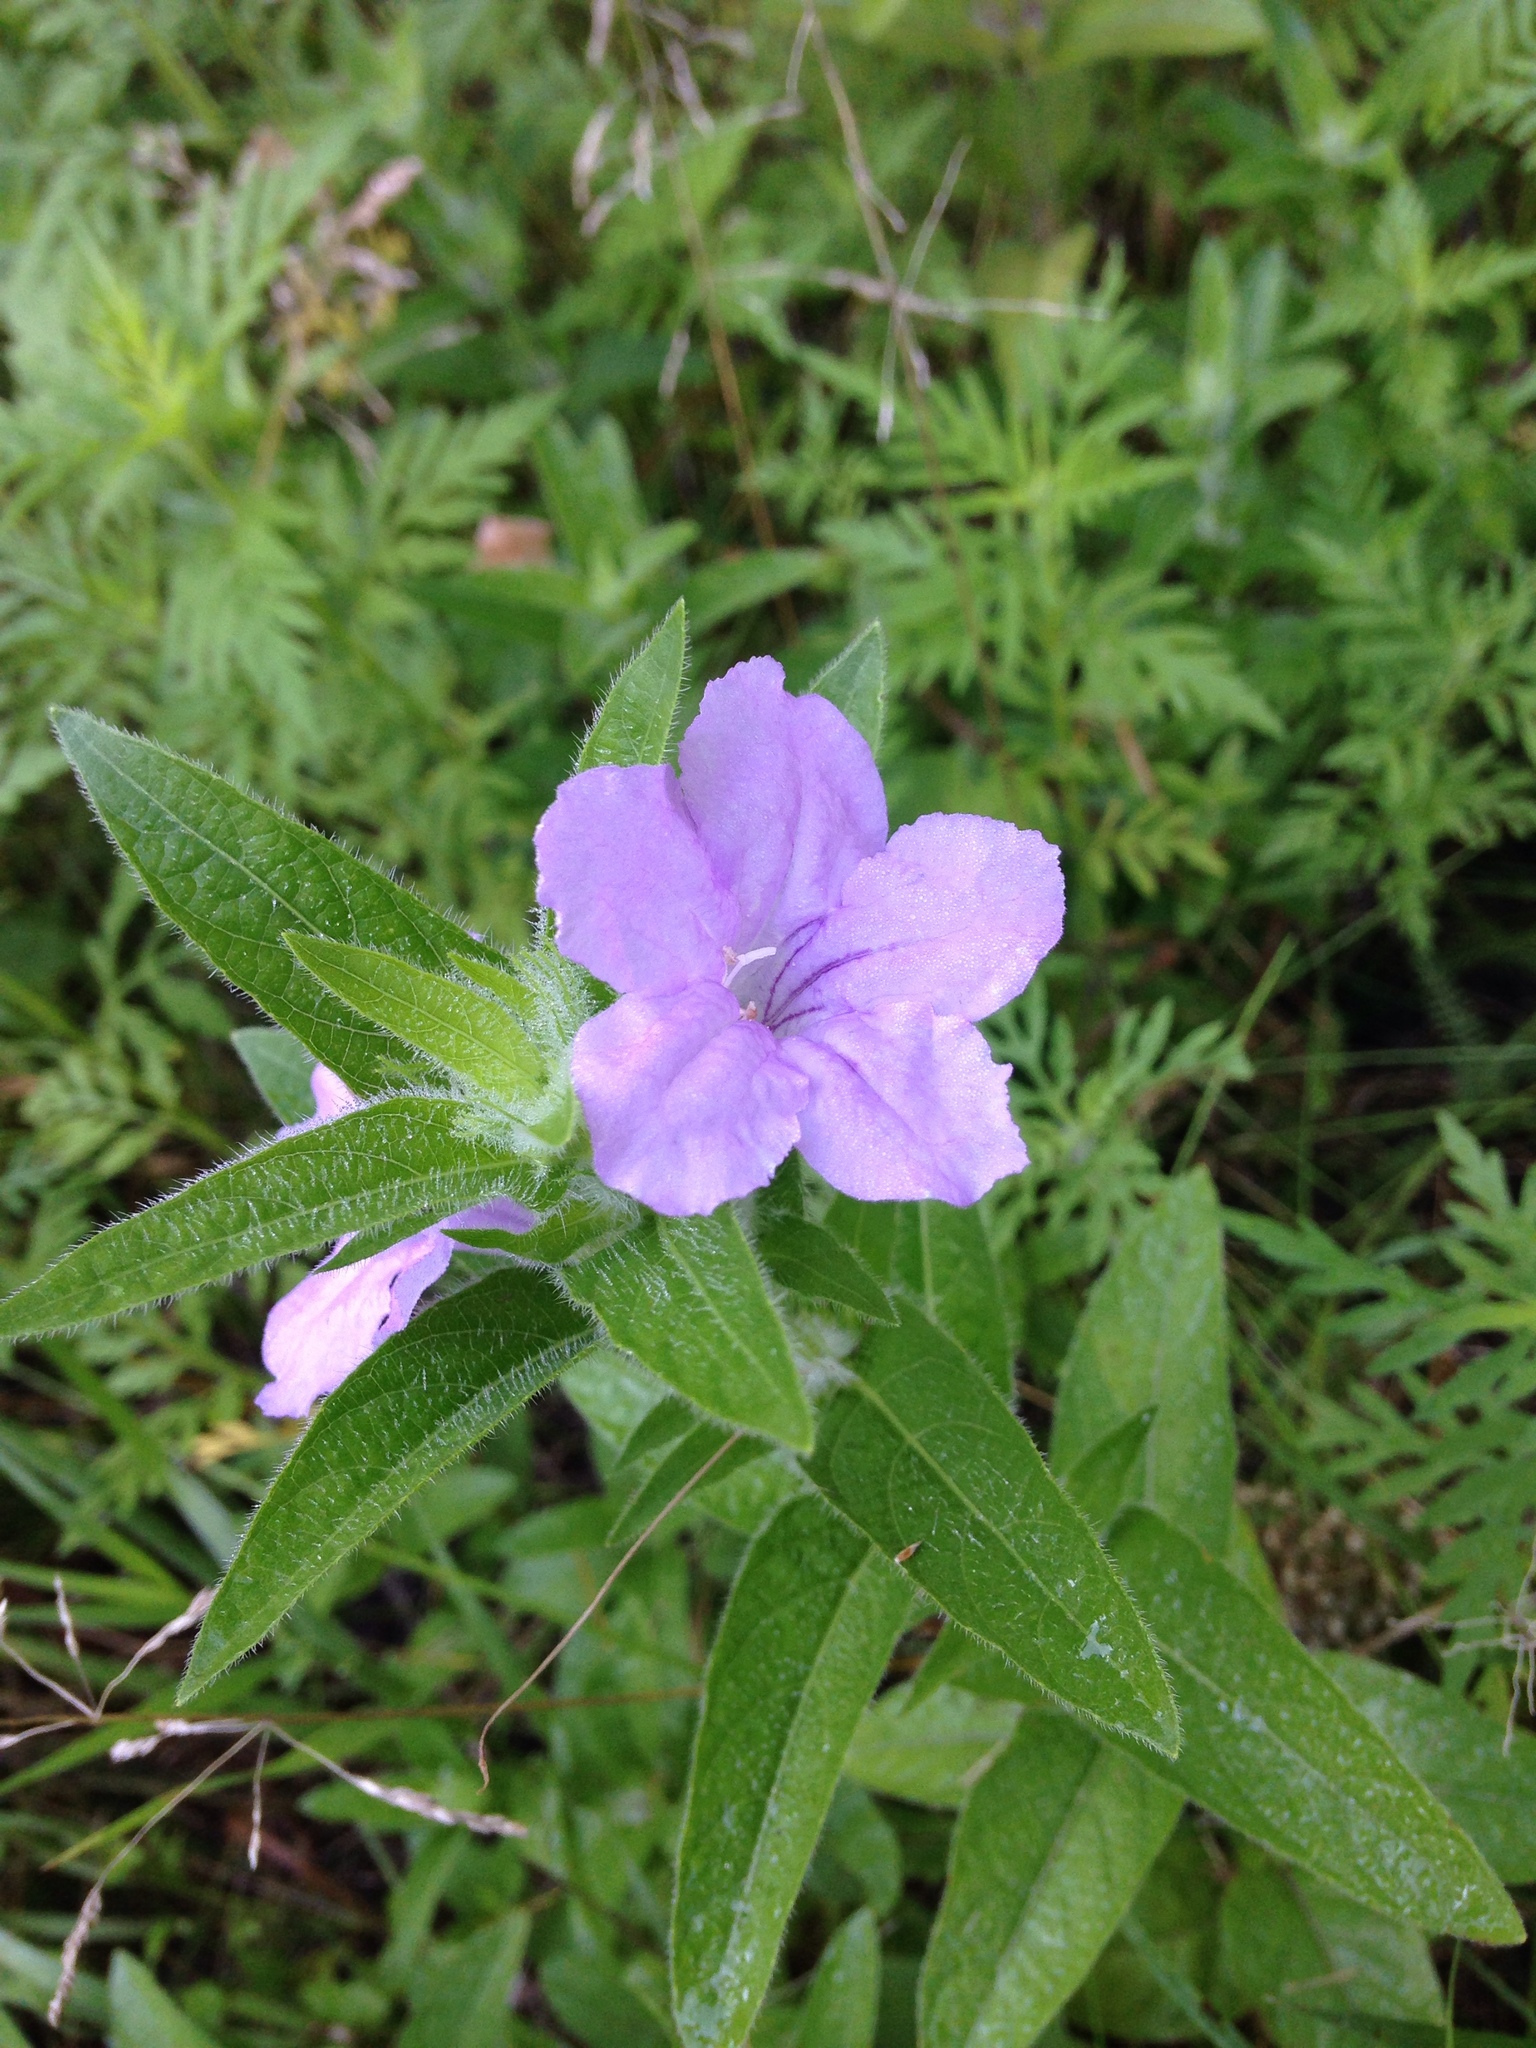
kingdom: Plantae
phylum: Tracheophyta
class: Magnoliopsida
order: Lamiales
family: Acanthaceae
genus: Ruellia
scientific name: Ruellia humilis
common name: Fringe-leaf ruellia
